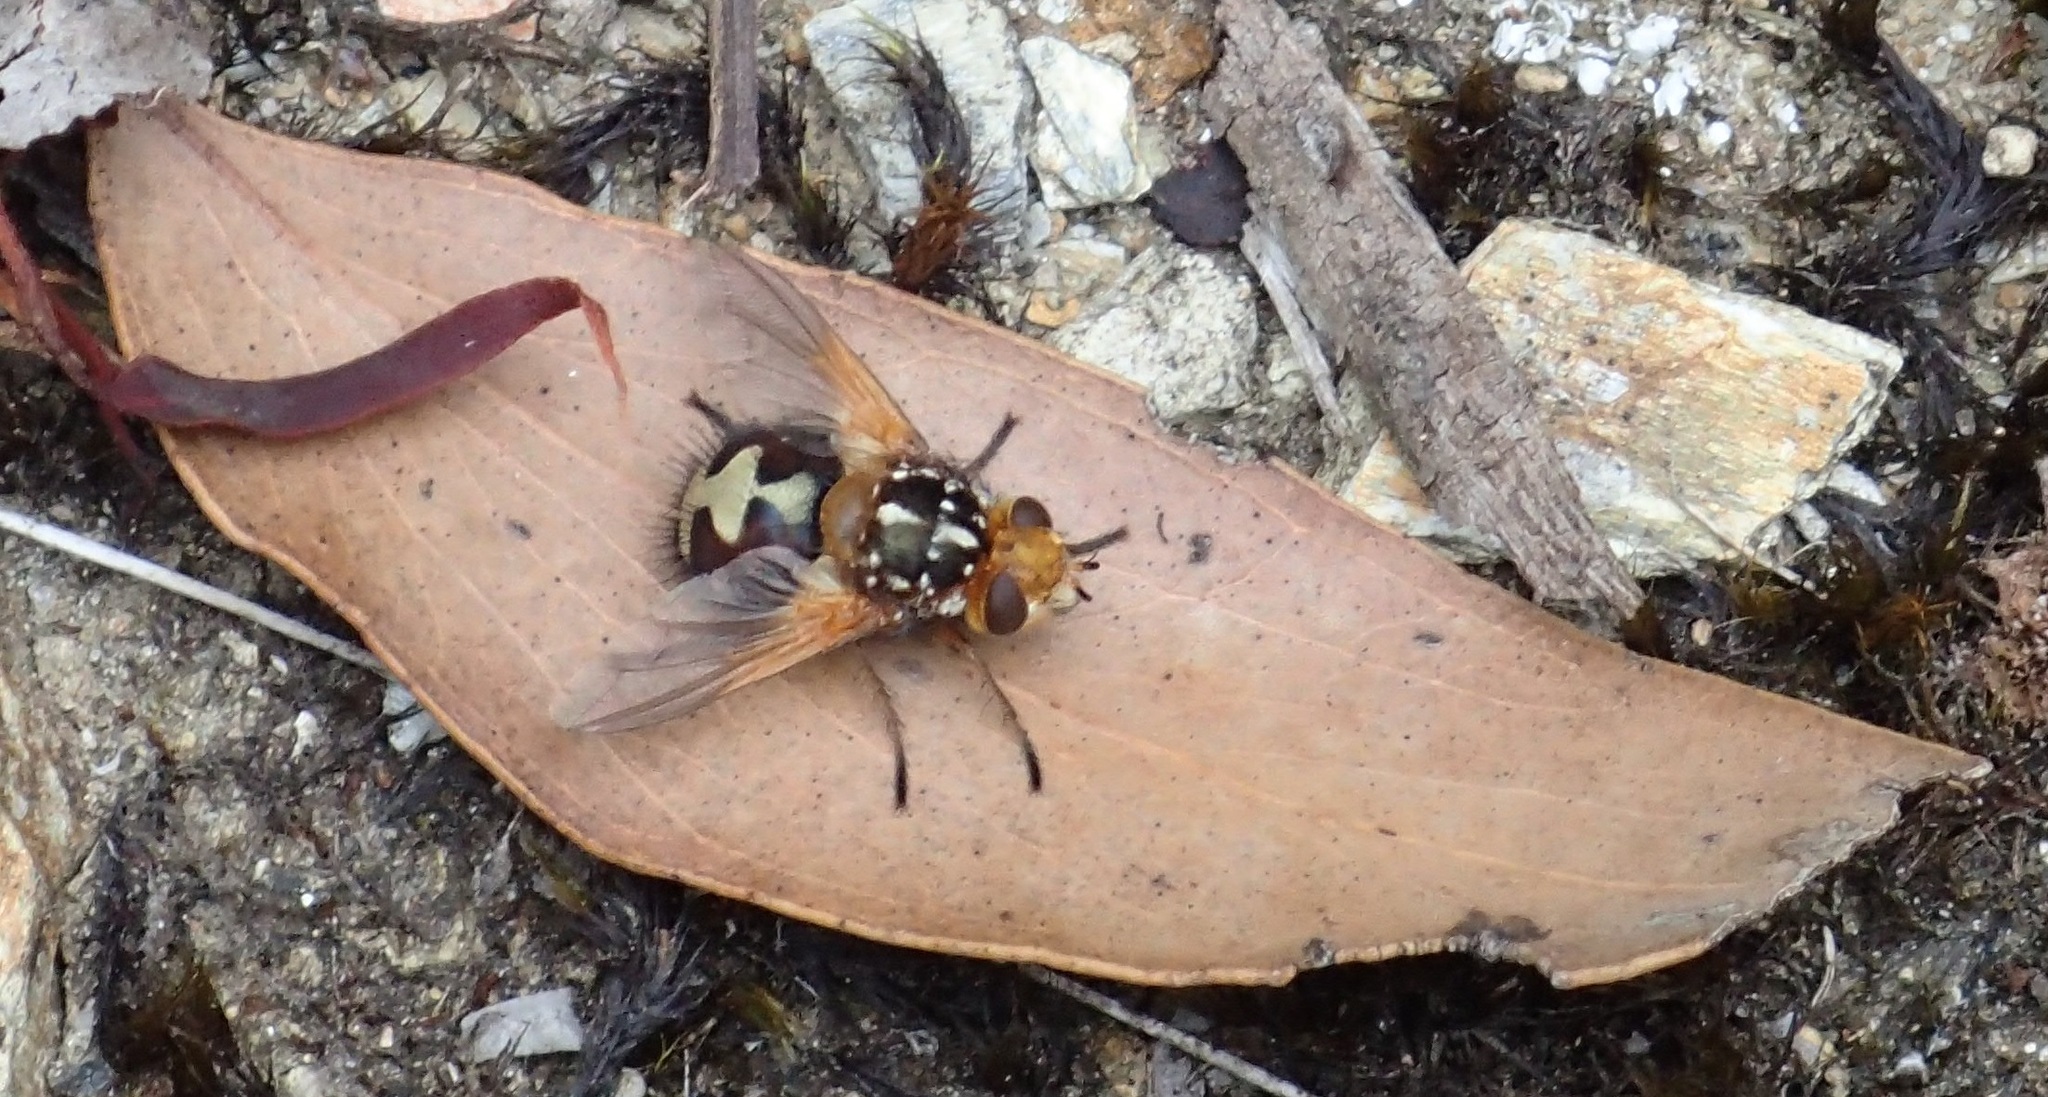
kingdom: Animalia
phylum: Arthropoda
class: Insecta
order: Diptera
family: Tachinidae
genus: Microtropesa
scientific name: Microtropesa nigricornis
